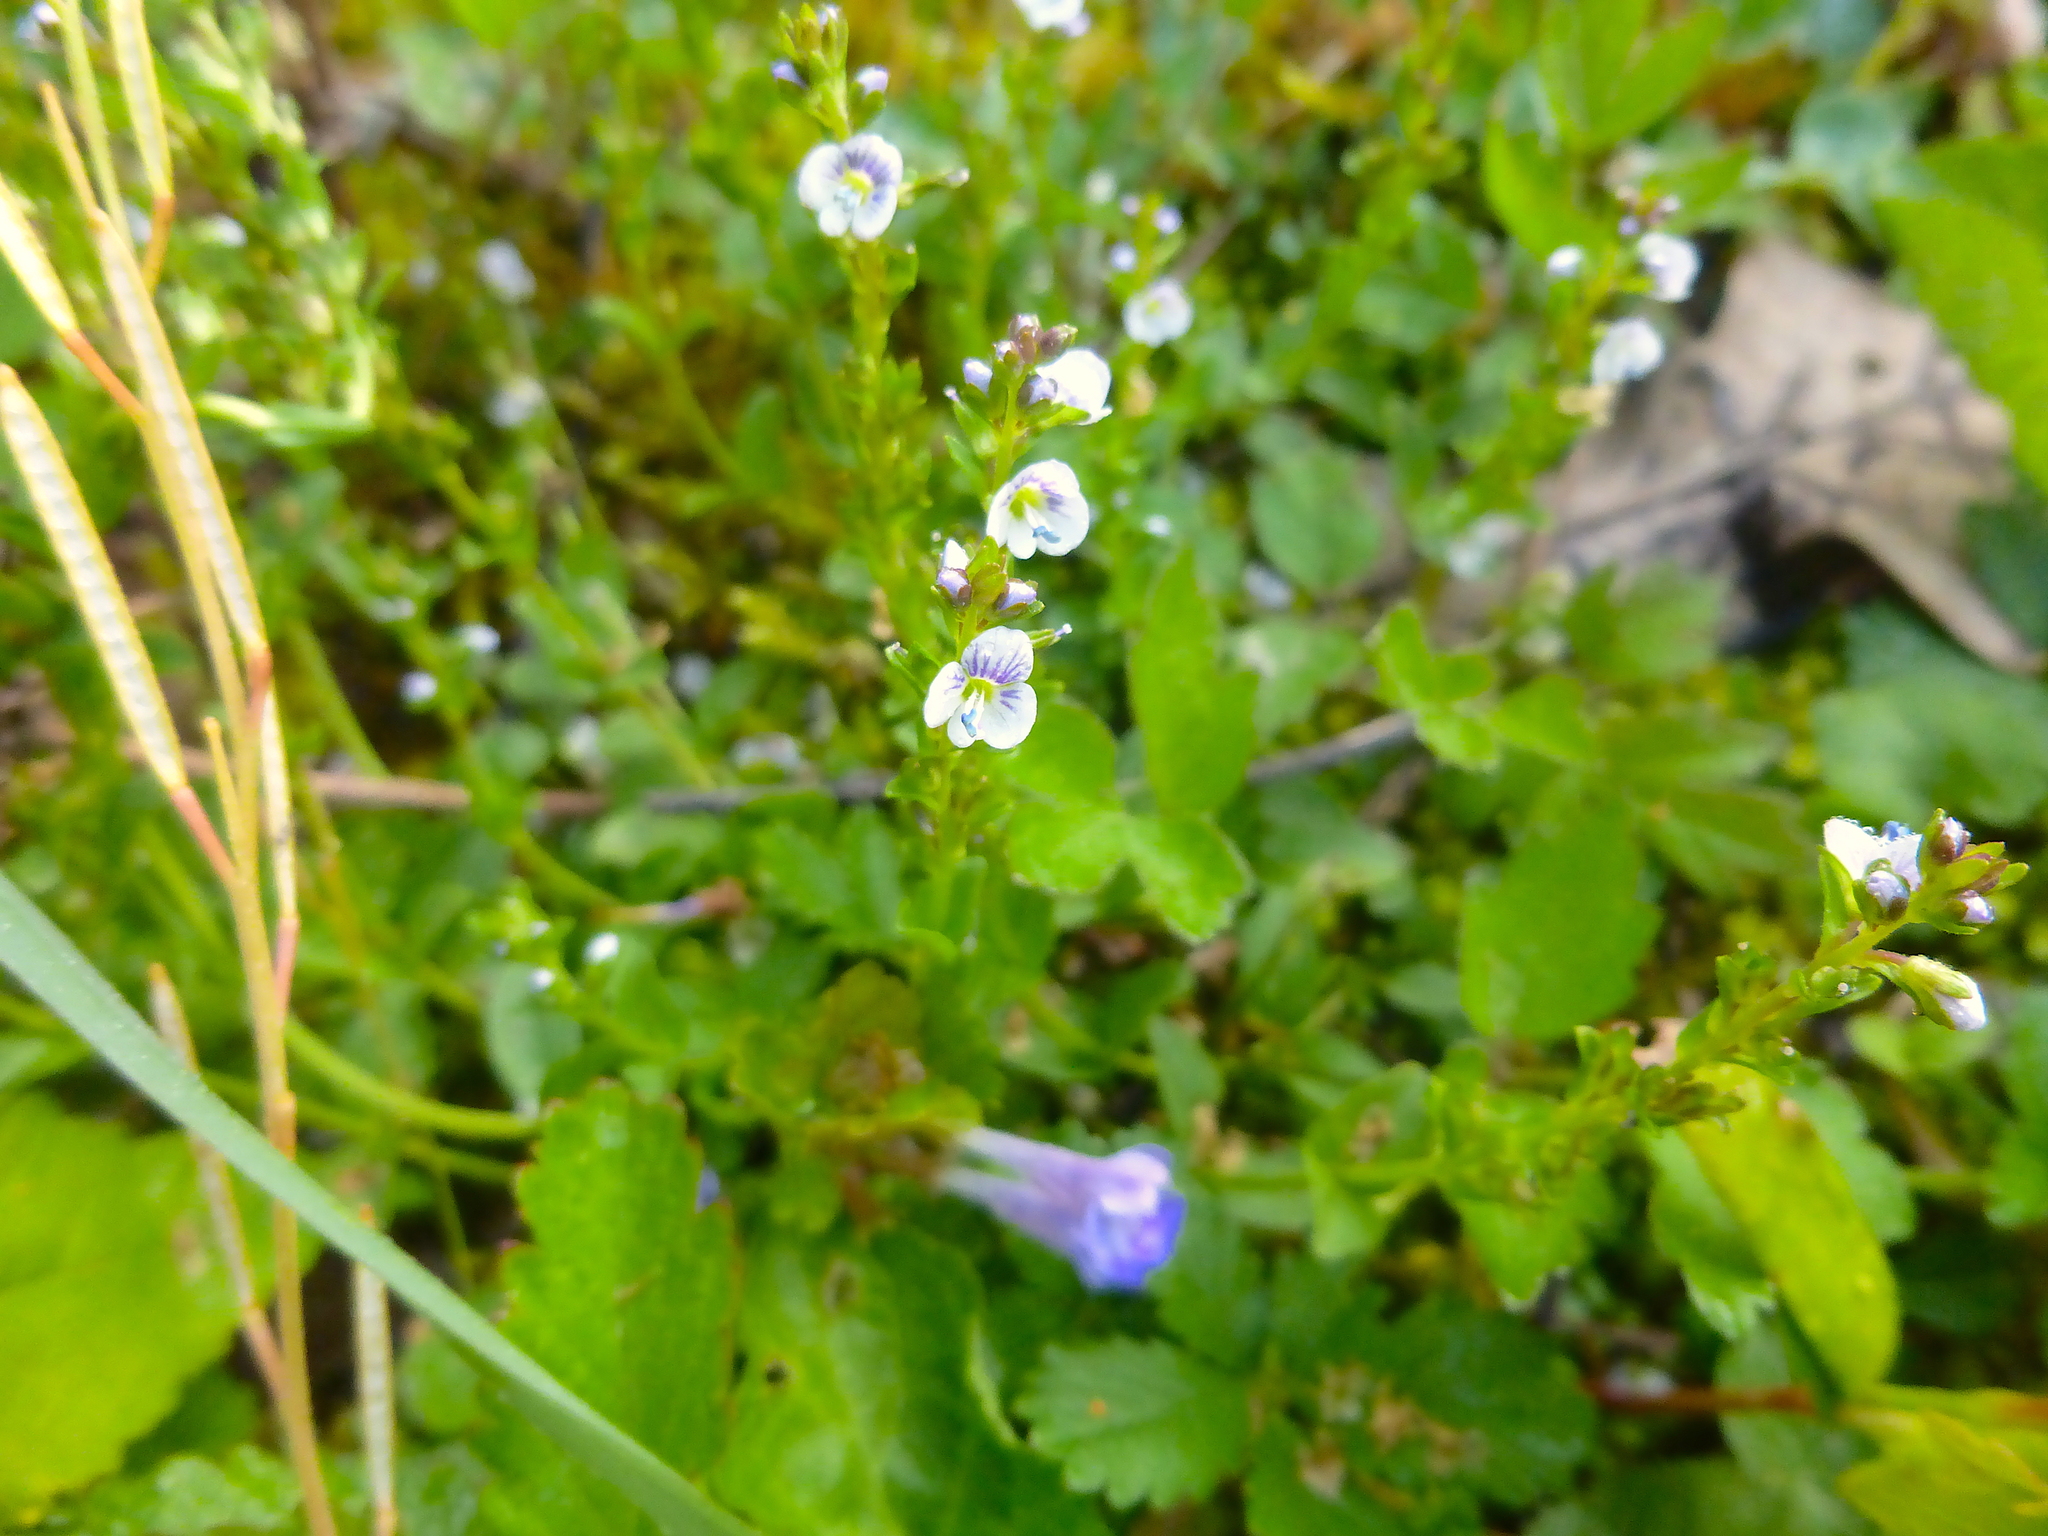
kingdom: Plantae
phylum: Tracheophyta
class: Magnoliopsida
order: Lamiales
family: Plantaginaceae
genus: Veronica
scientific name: Veronica serpyllifolia
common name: Thyme-leaved speedwell
